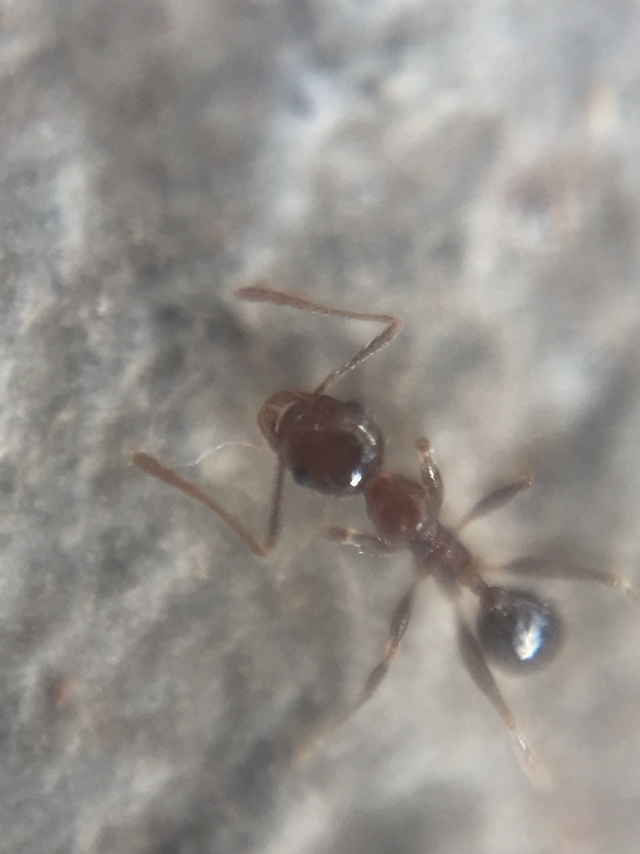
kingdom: Animalia
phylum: Arthropoda
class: Insecta
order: Hymenoptera
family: Formicidae
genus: Pheidole
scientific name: Pheidole indica
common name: Big-headed ant
